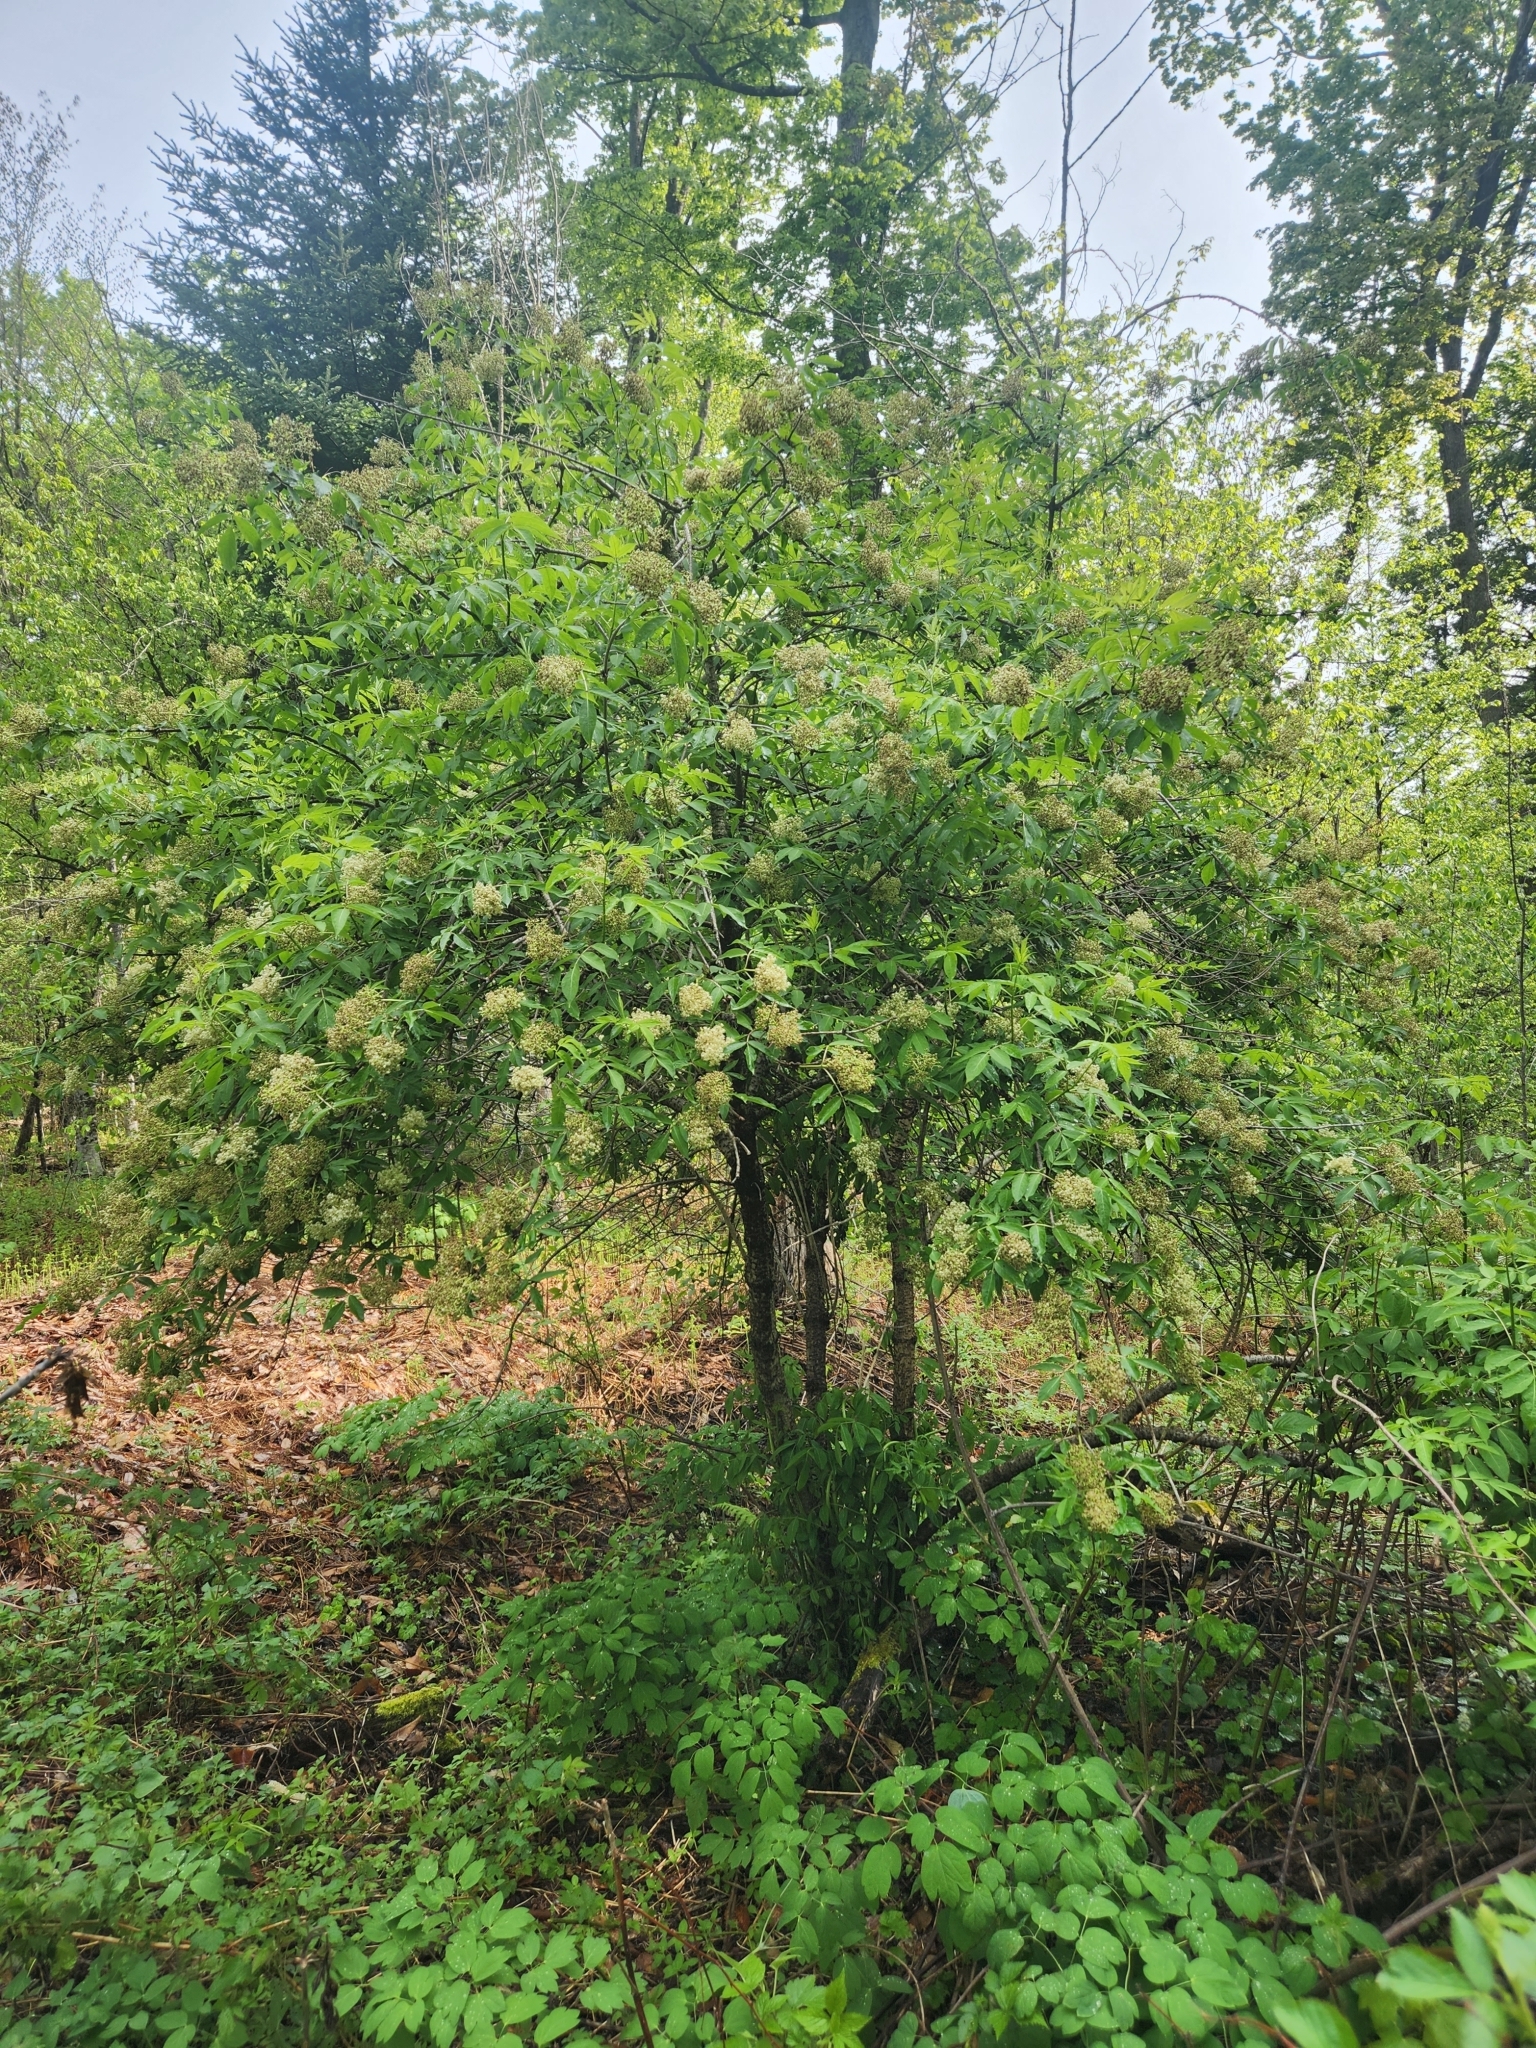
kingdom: Plantae
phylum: Tracheophyta
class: Magnoliopsida
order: Dipsacales
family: Viburnaceae
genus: Sambucus
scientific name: Sambucus racemosa
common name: Red-berried elder
